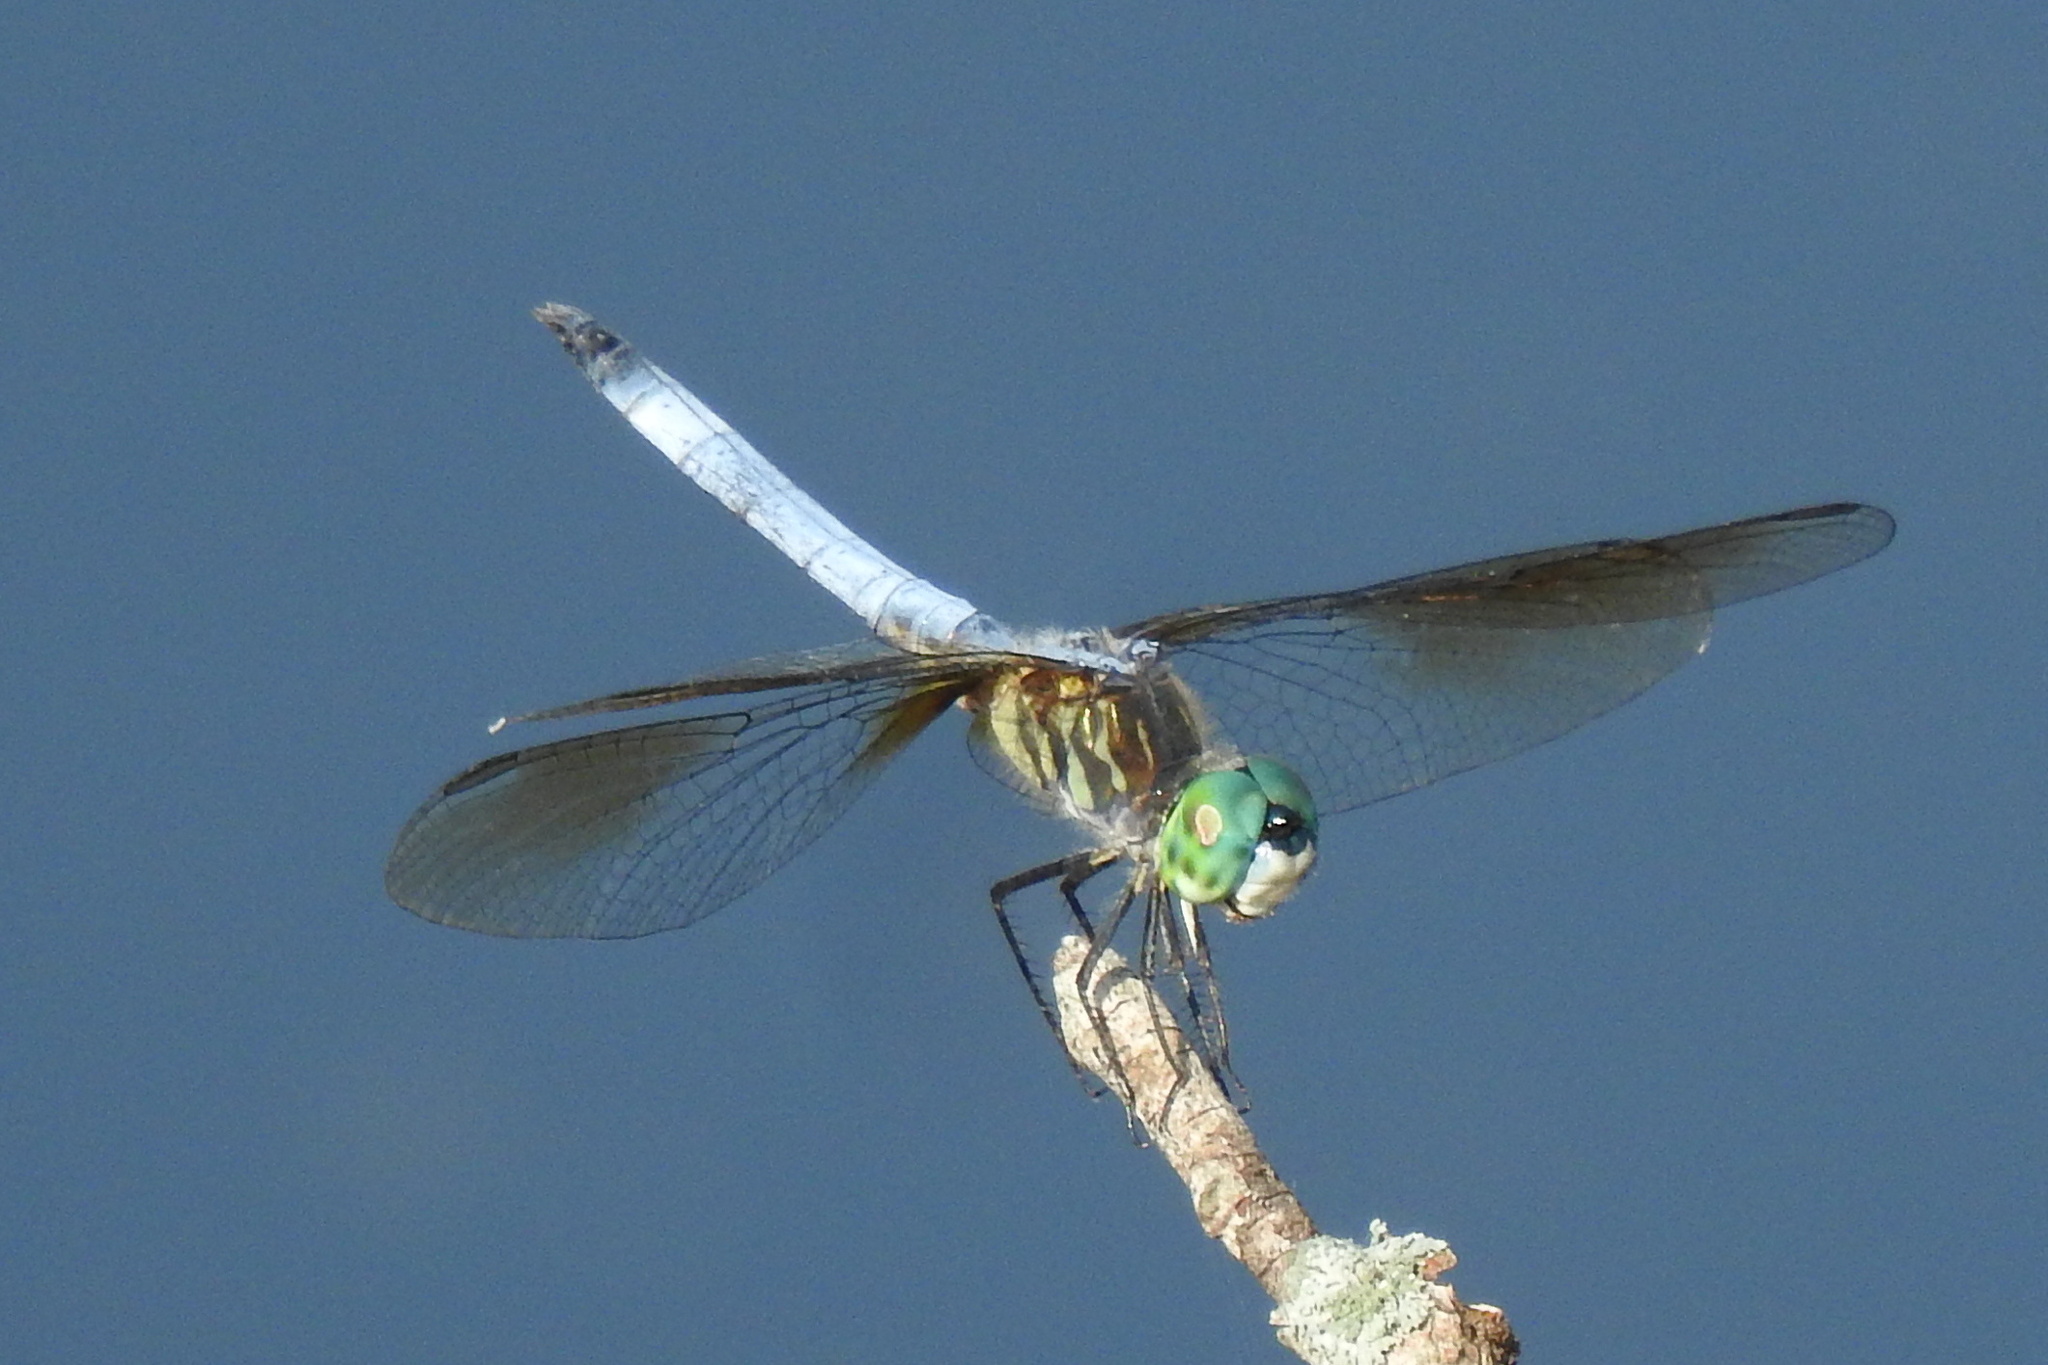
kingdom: Animalia
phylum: Arthropoda
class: Insecta
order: Odonata
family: Libellulidae
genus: Pachydiplax
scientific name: Pachydiplax longipennis
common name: Blue dasher
